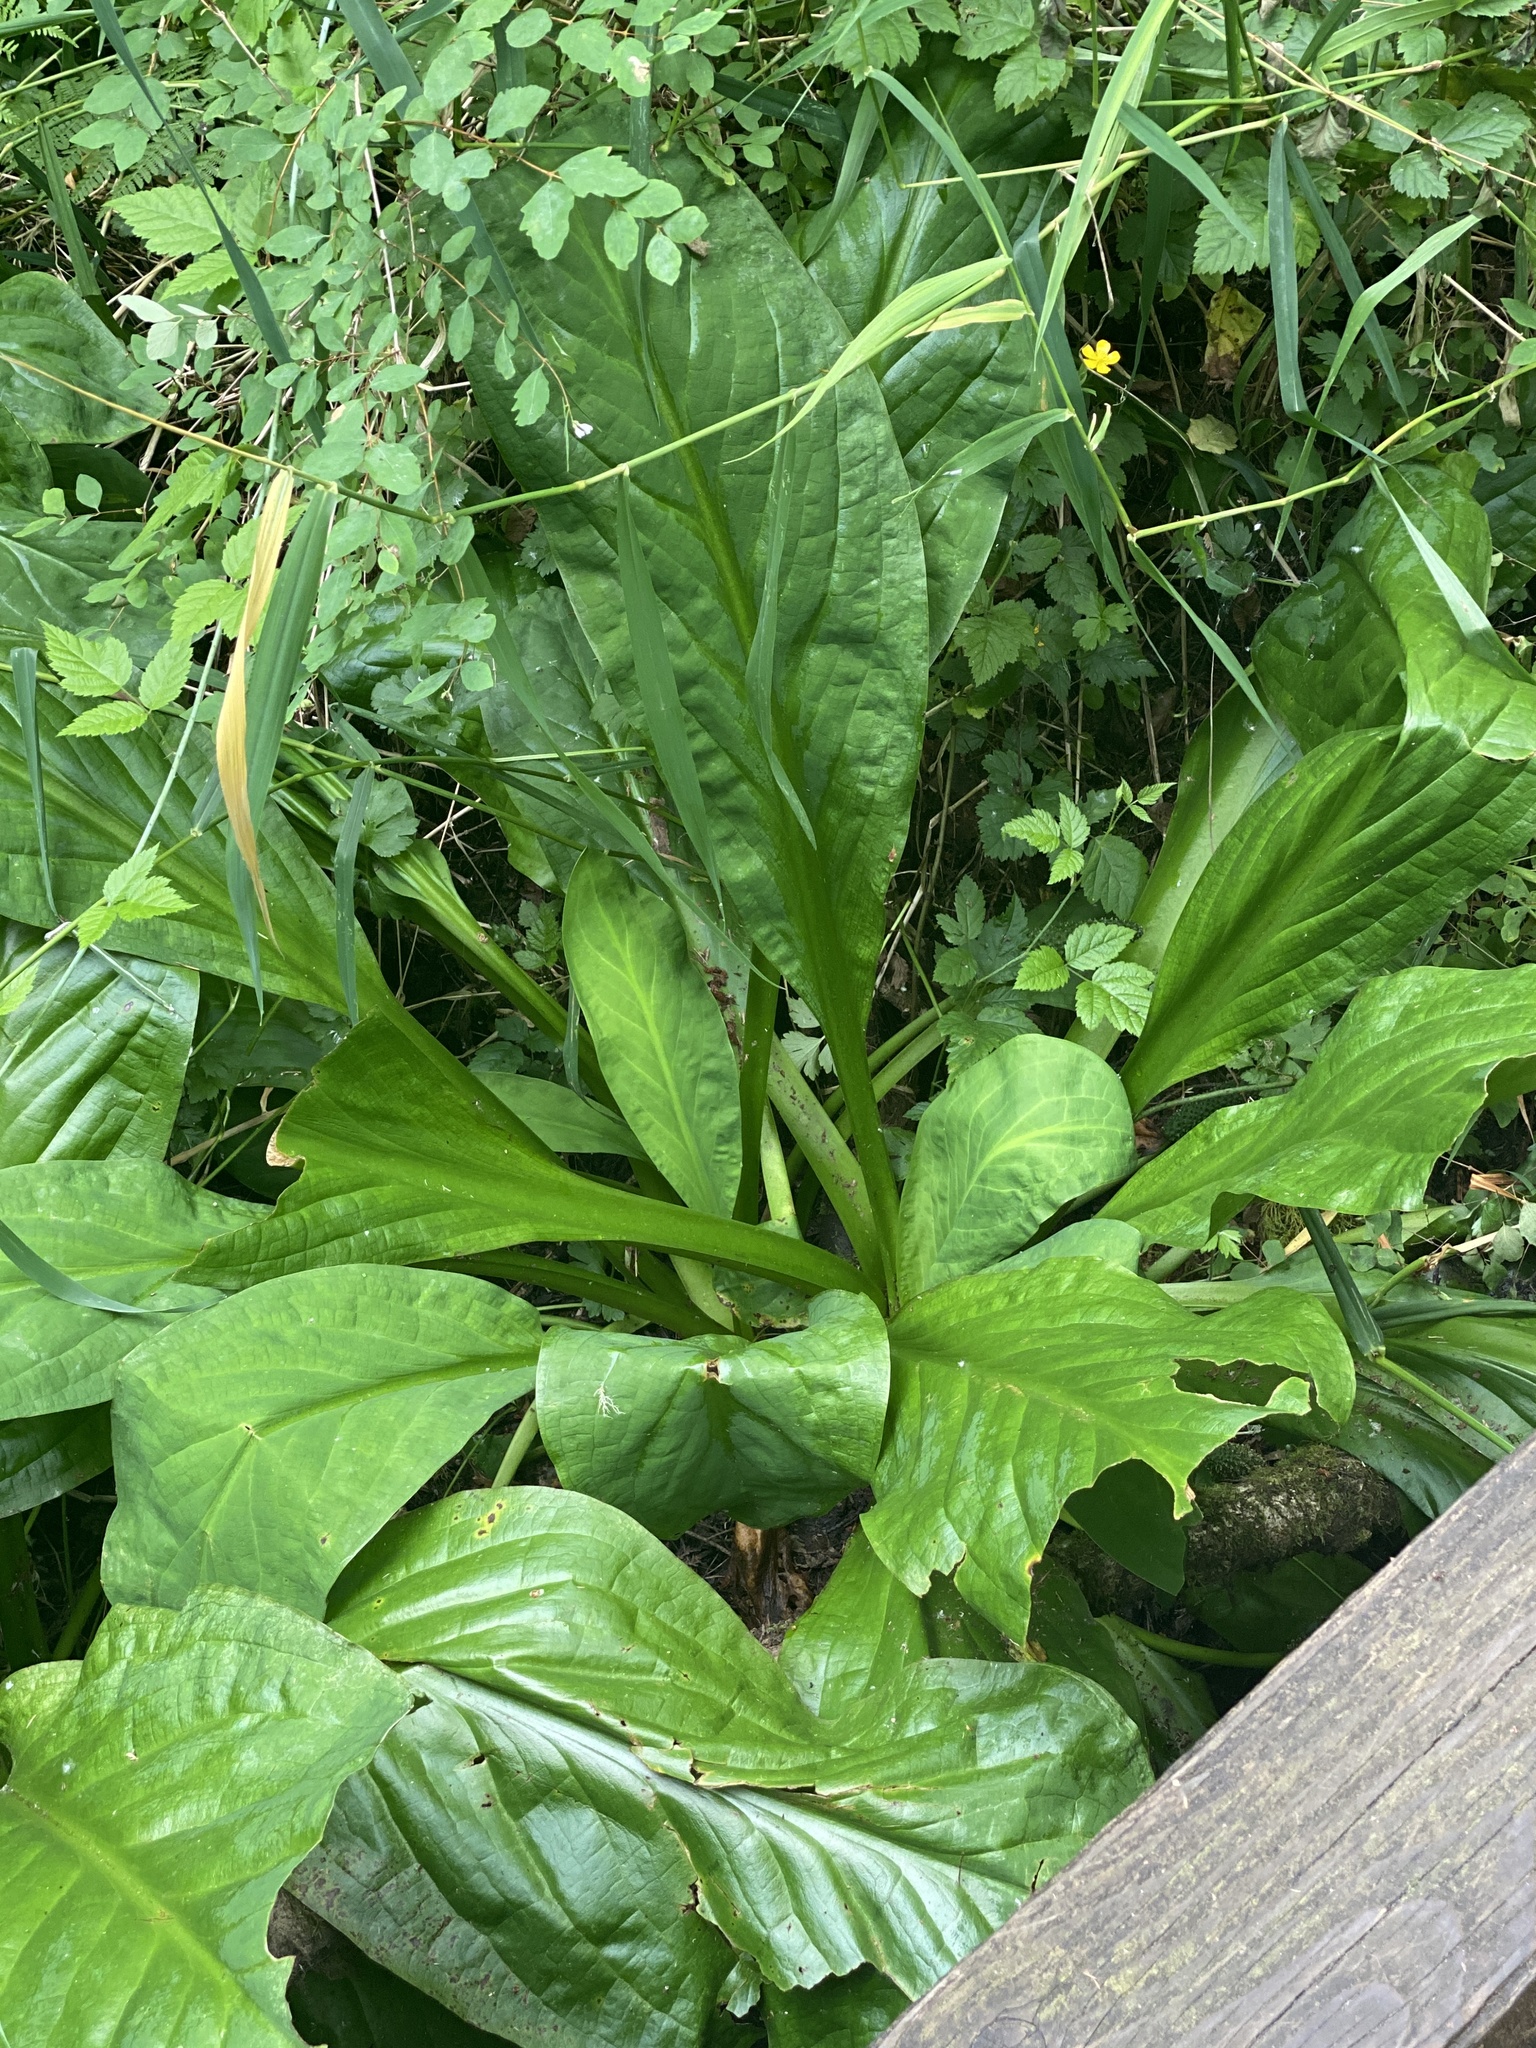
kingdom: Plantae
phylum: Tracheophyta
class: Liliopsida
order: Alismatales
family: Araceae
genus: Lysichiton
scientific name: Lysichiton americanus
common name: American skunk cabbage
